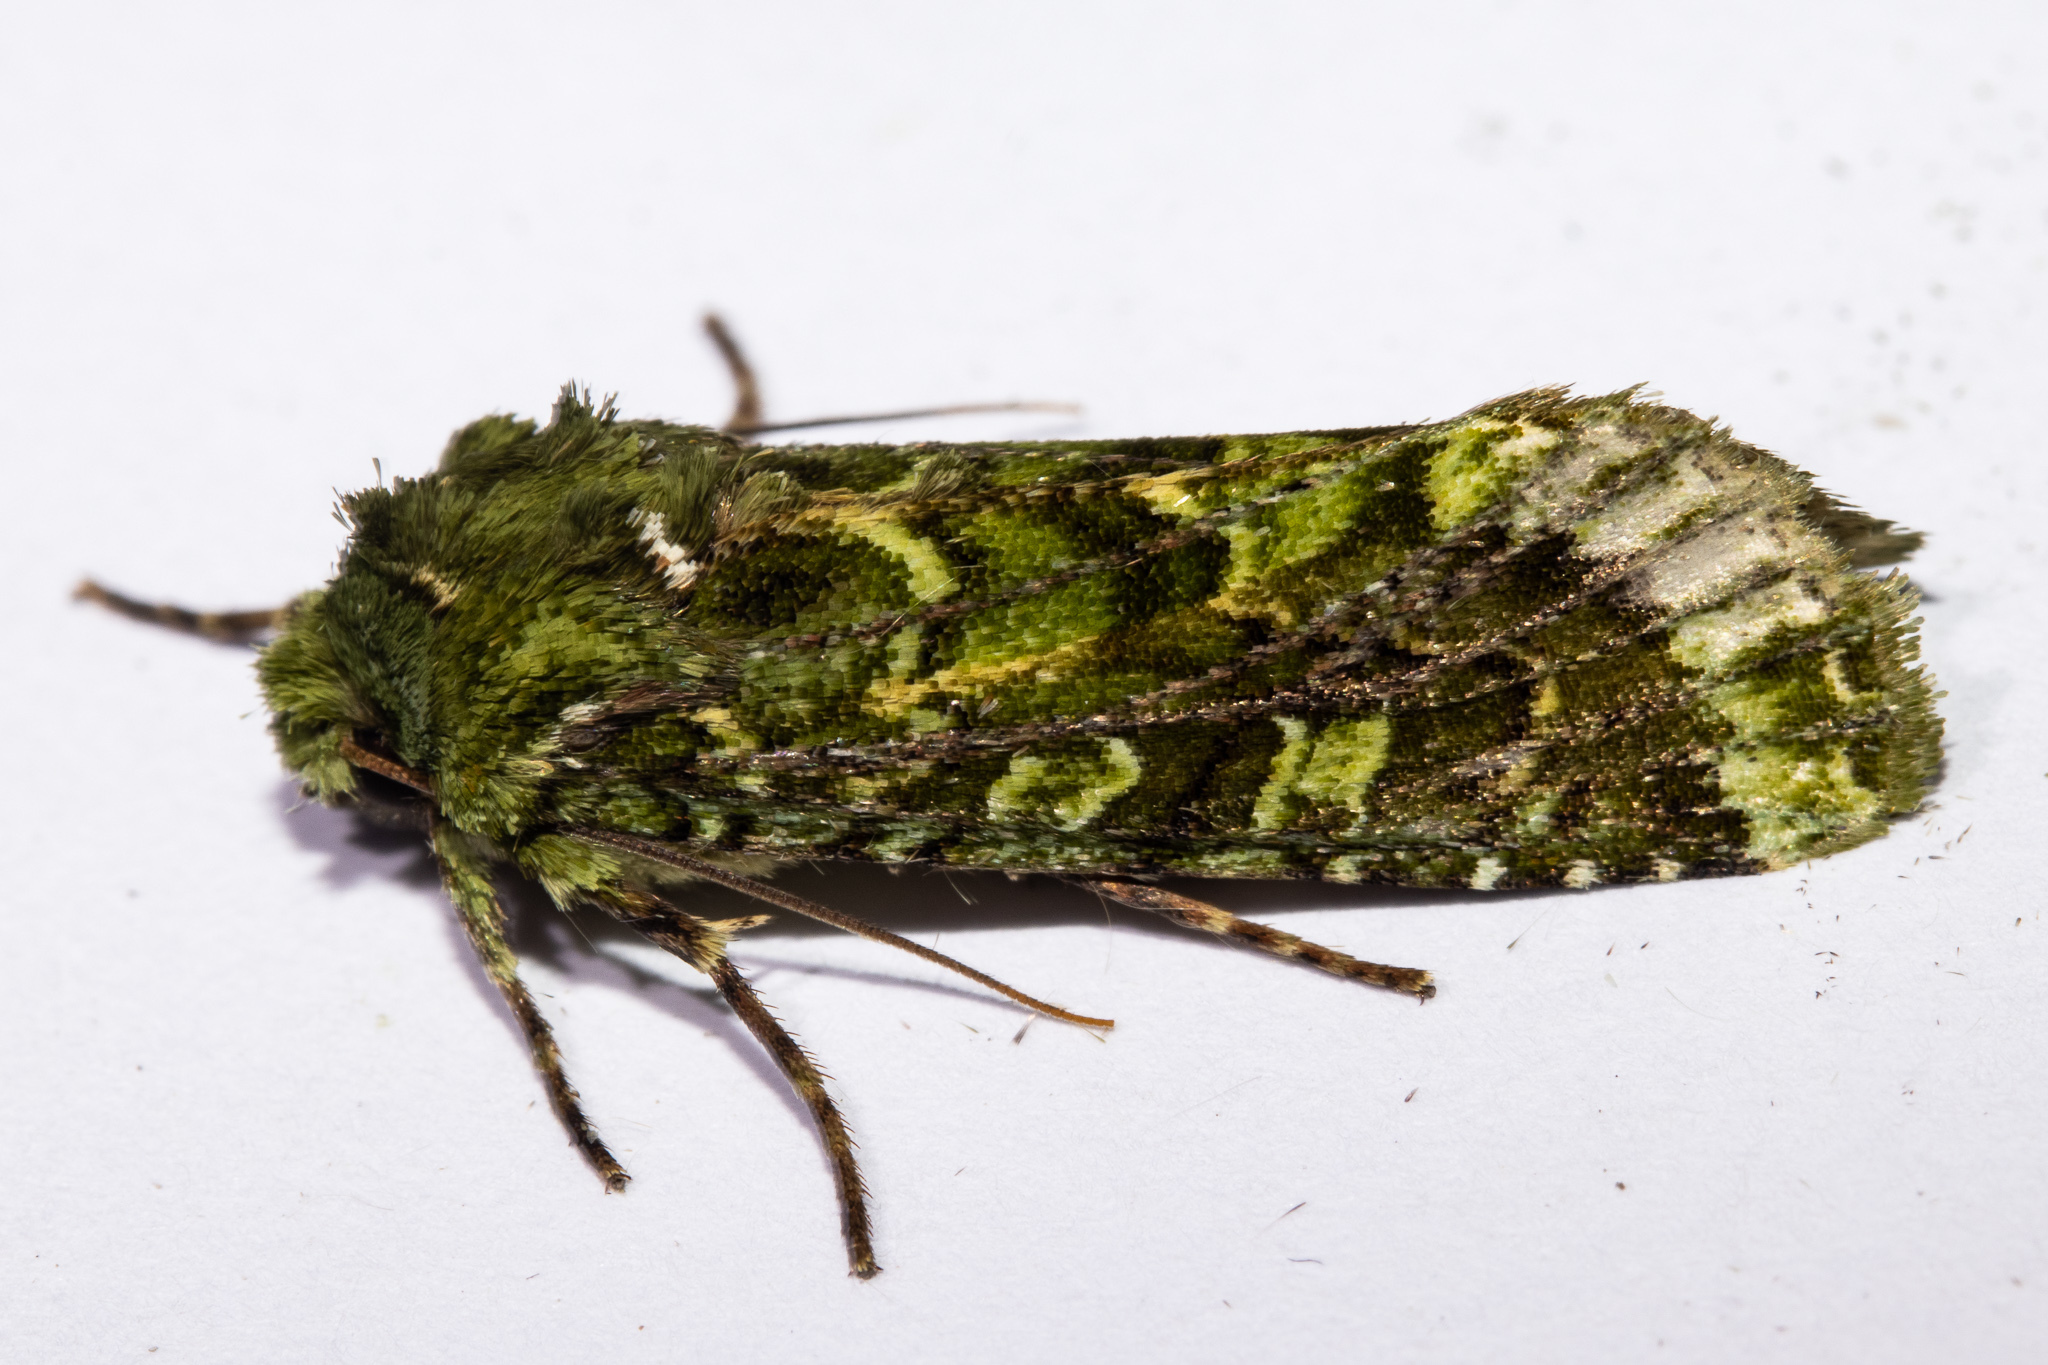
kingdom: Animalia
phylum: Arthropoda
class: Insecta
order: Lepidoptera
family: Noctuidae
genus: Feredayia
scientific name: Feredayia grammosa
